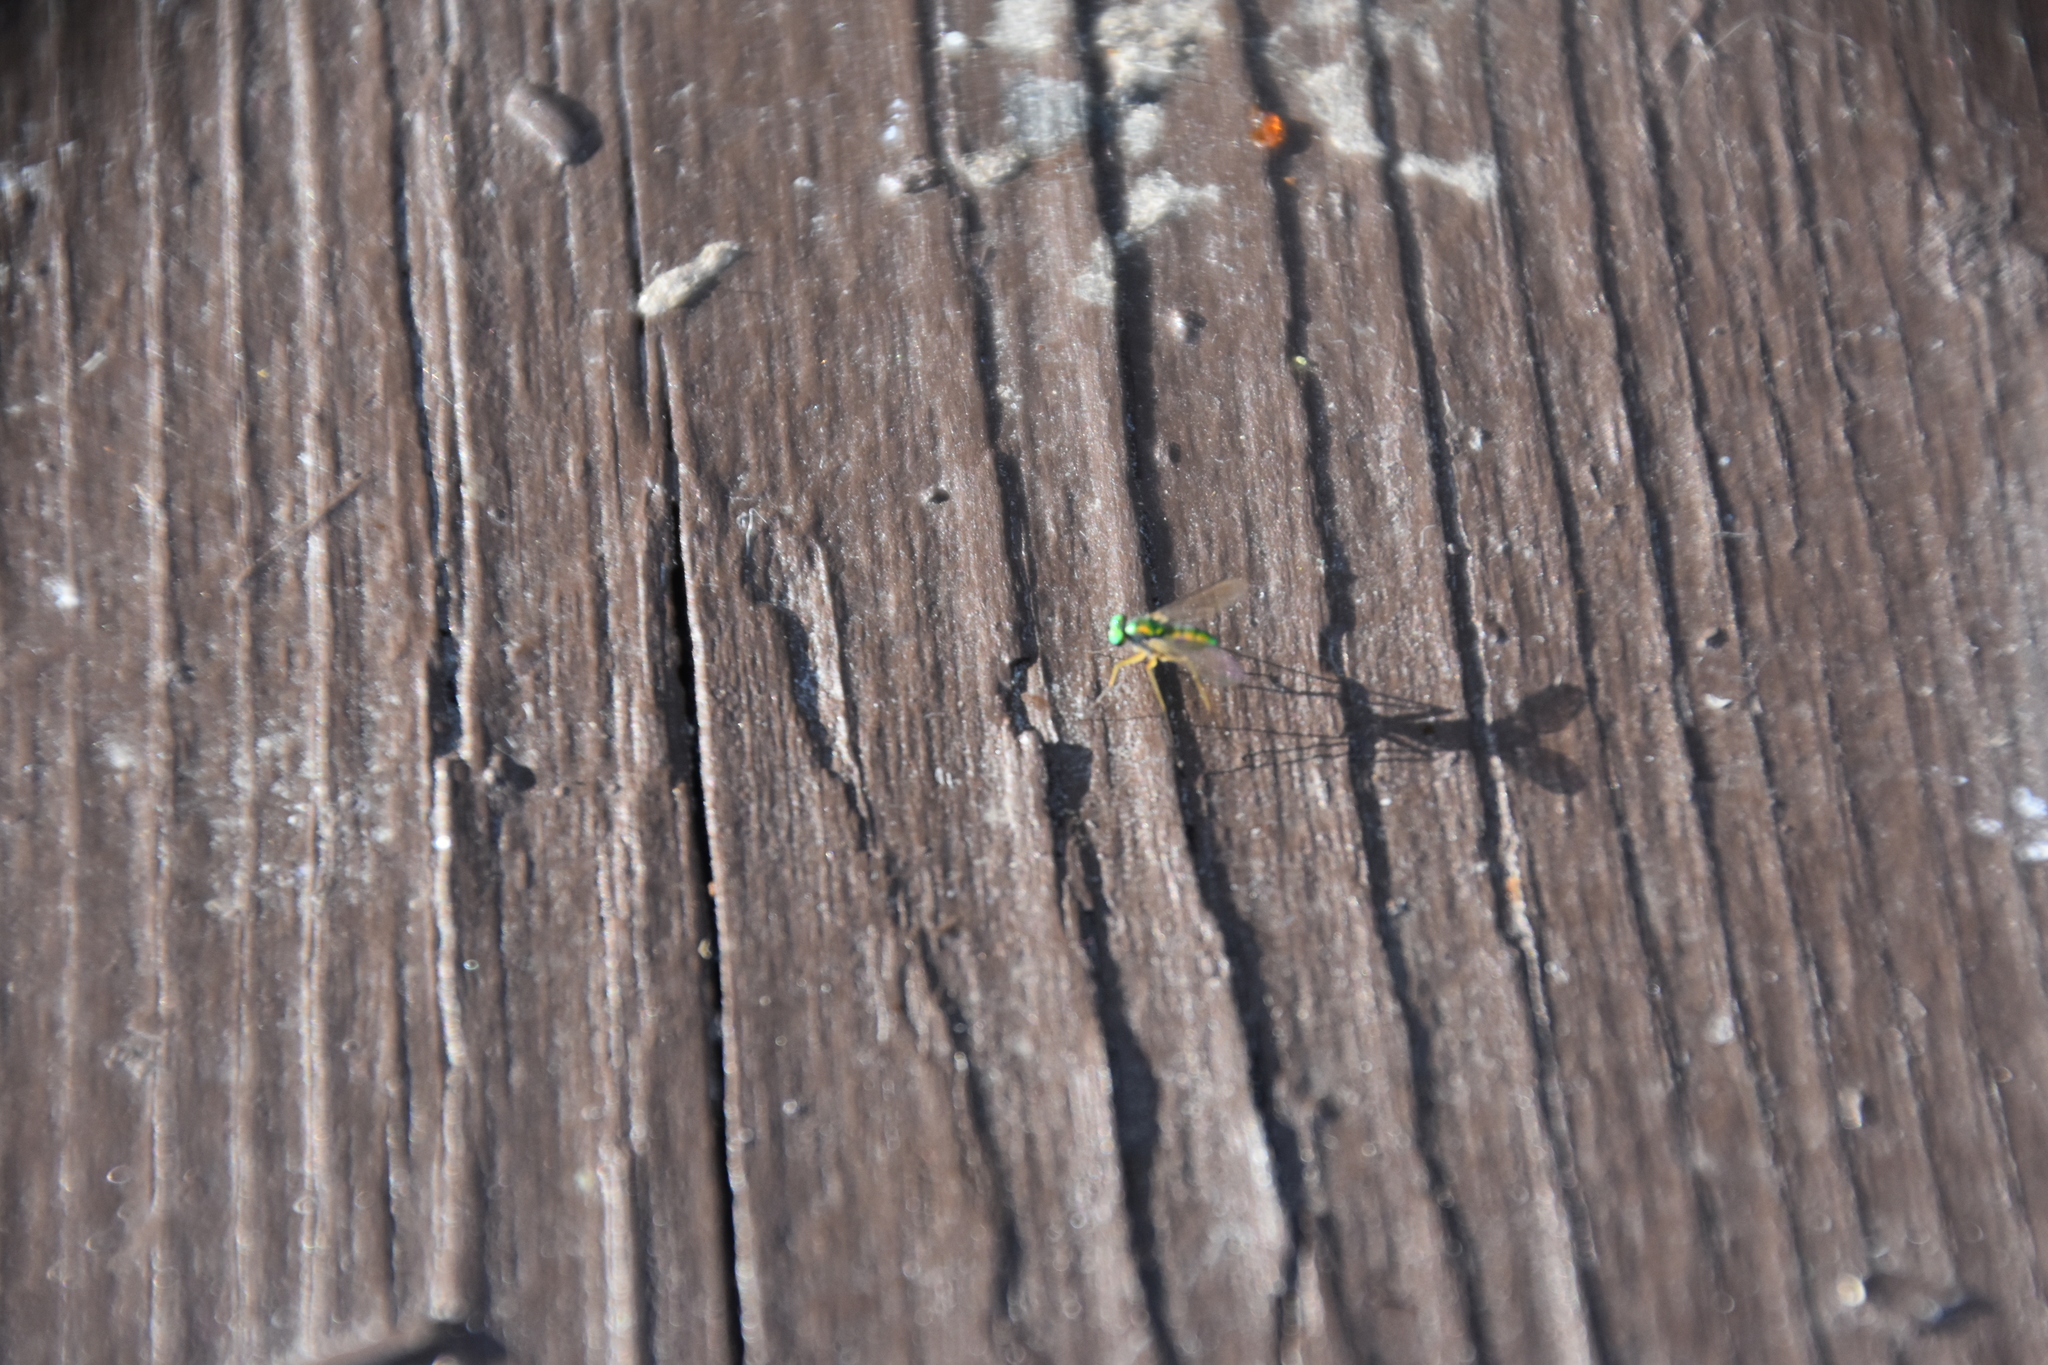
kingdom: Animalia
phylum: Arthropoda
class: Insecta
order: Diptera
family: Dolichopodidae
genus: Amblypsilopus
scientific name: Amblypsilopus scintillans
